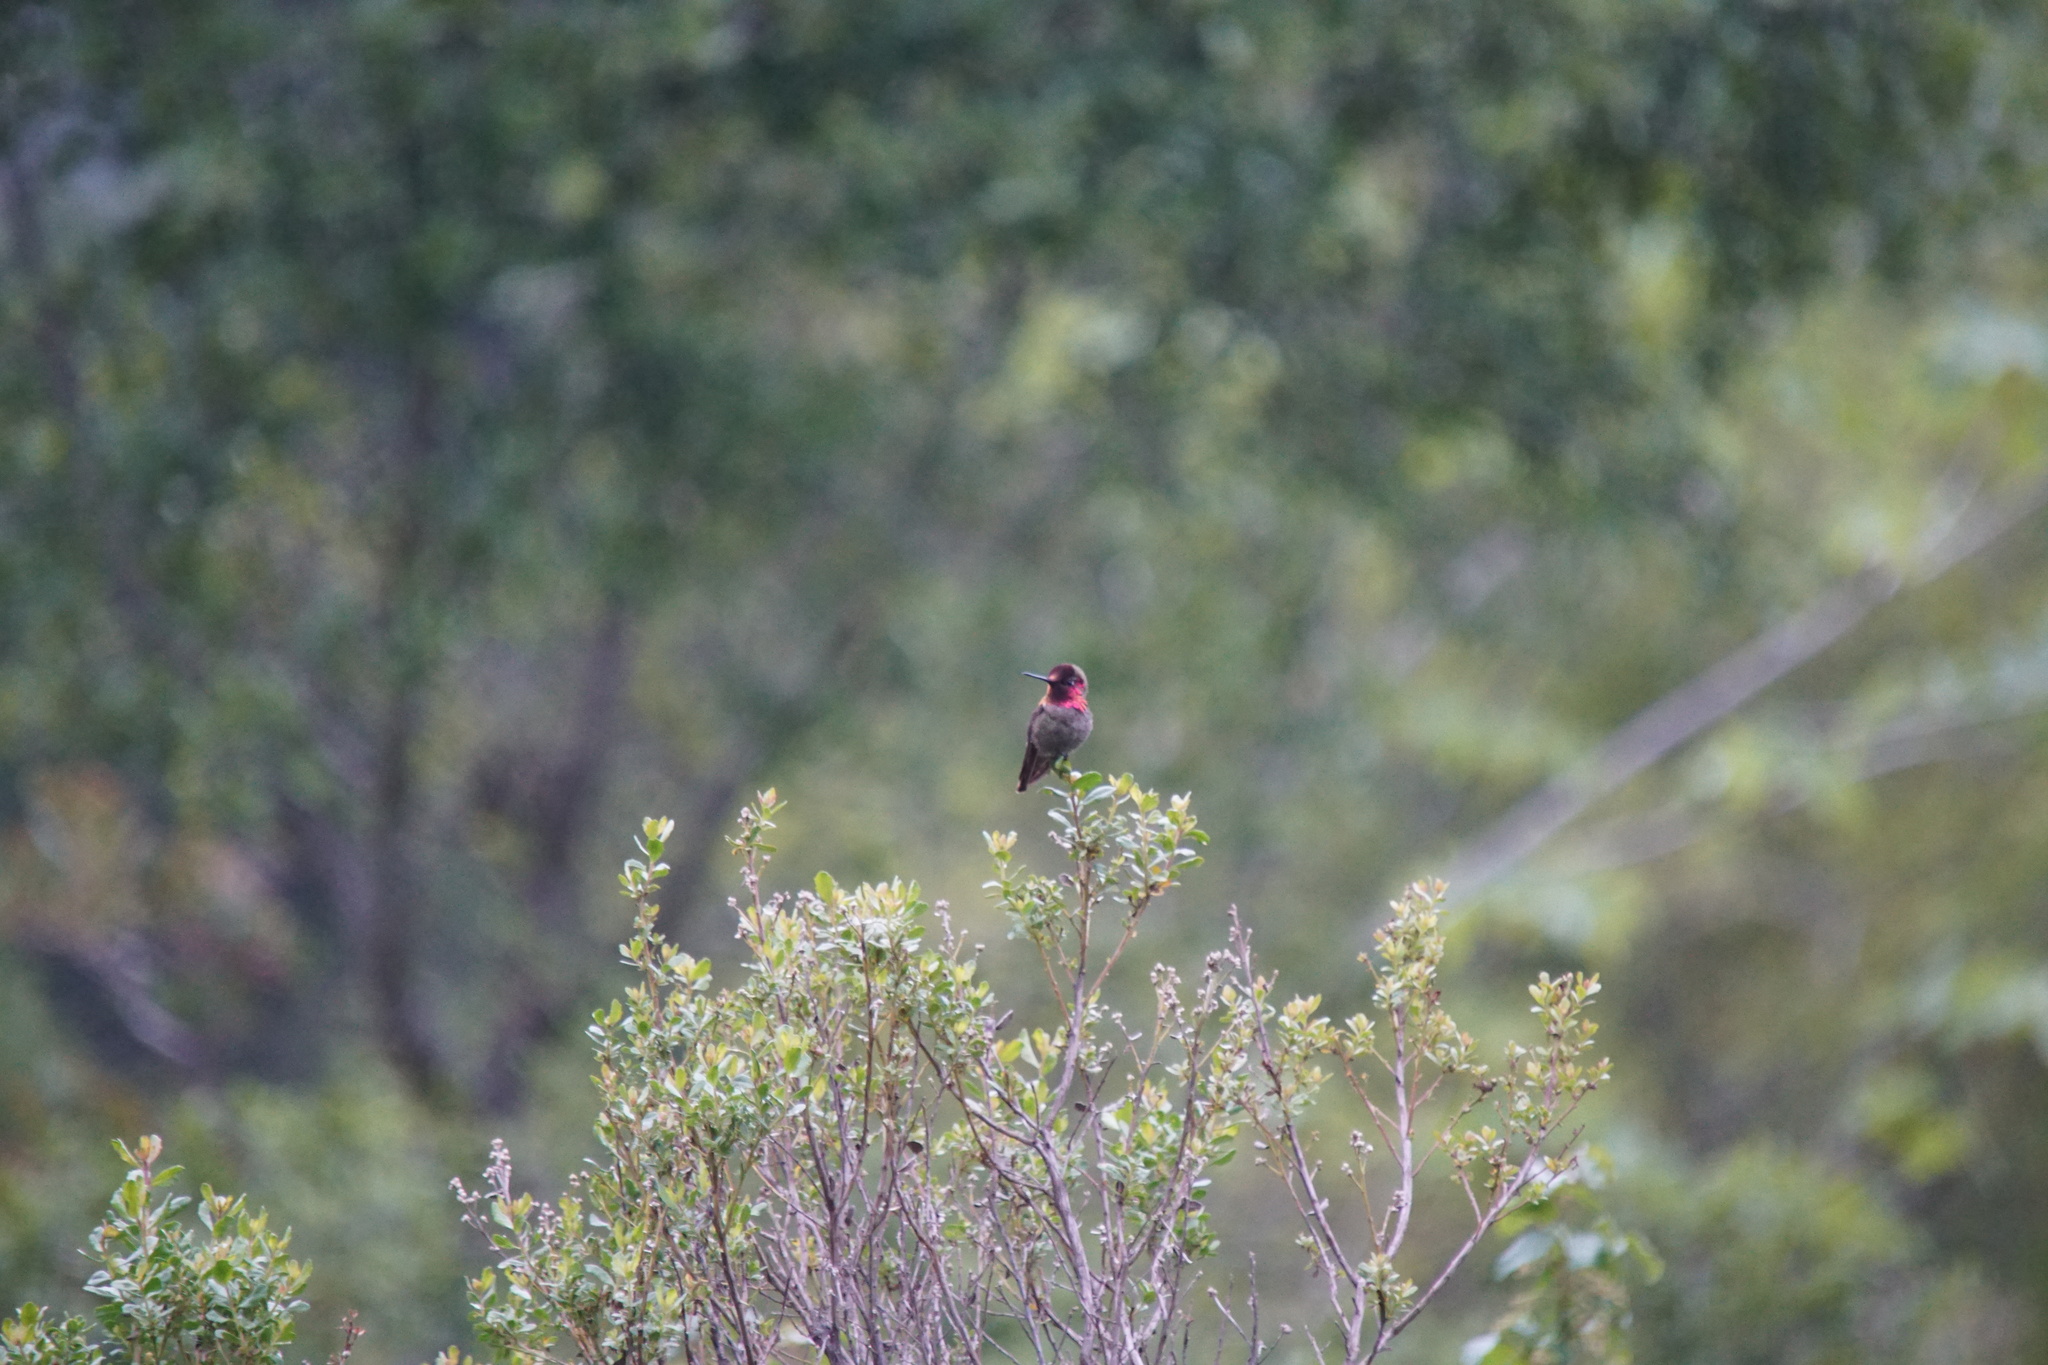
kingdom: Animalia
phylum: Chordata
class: Aves
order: Apodiformes
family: Trochilidae
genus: Calypte
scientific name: Calypte anna
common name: Anna's hummingbird
